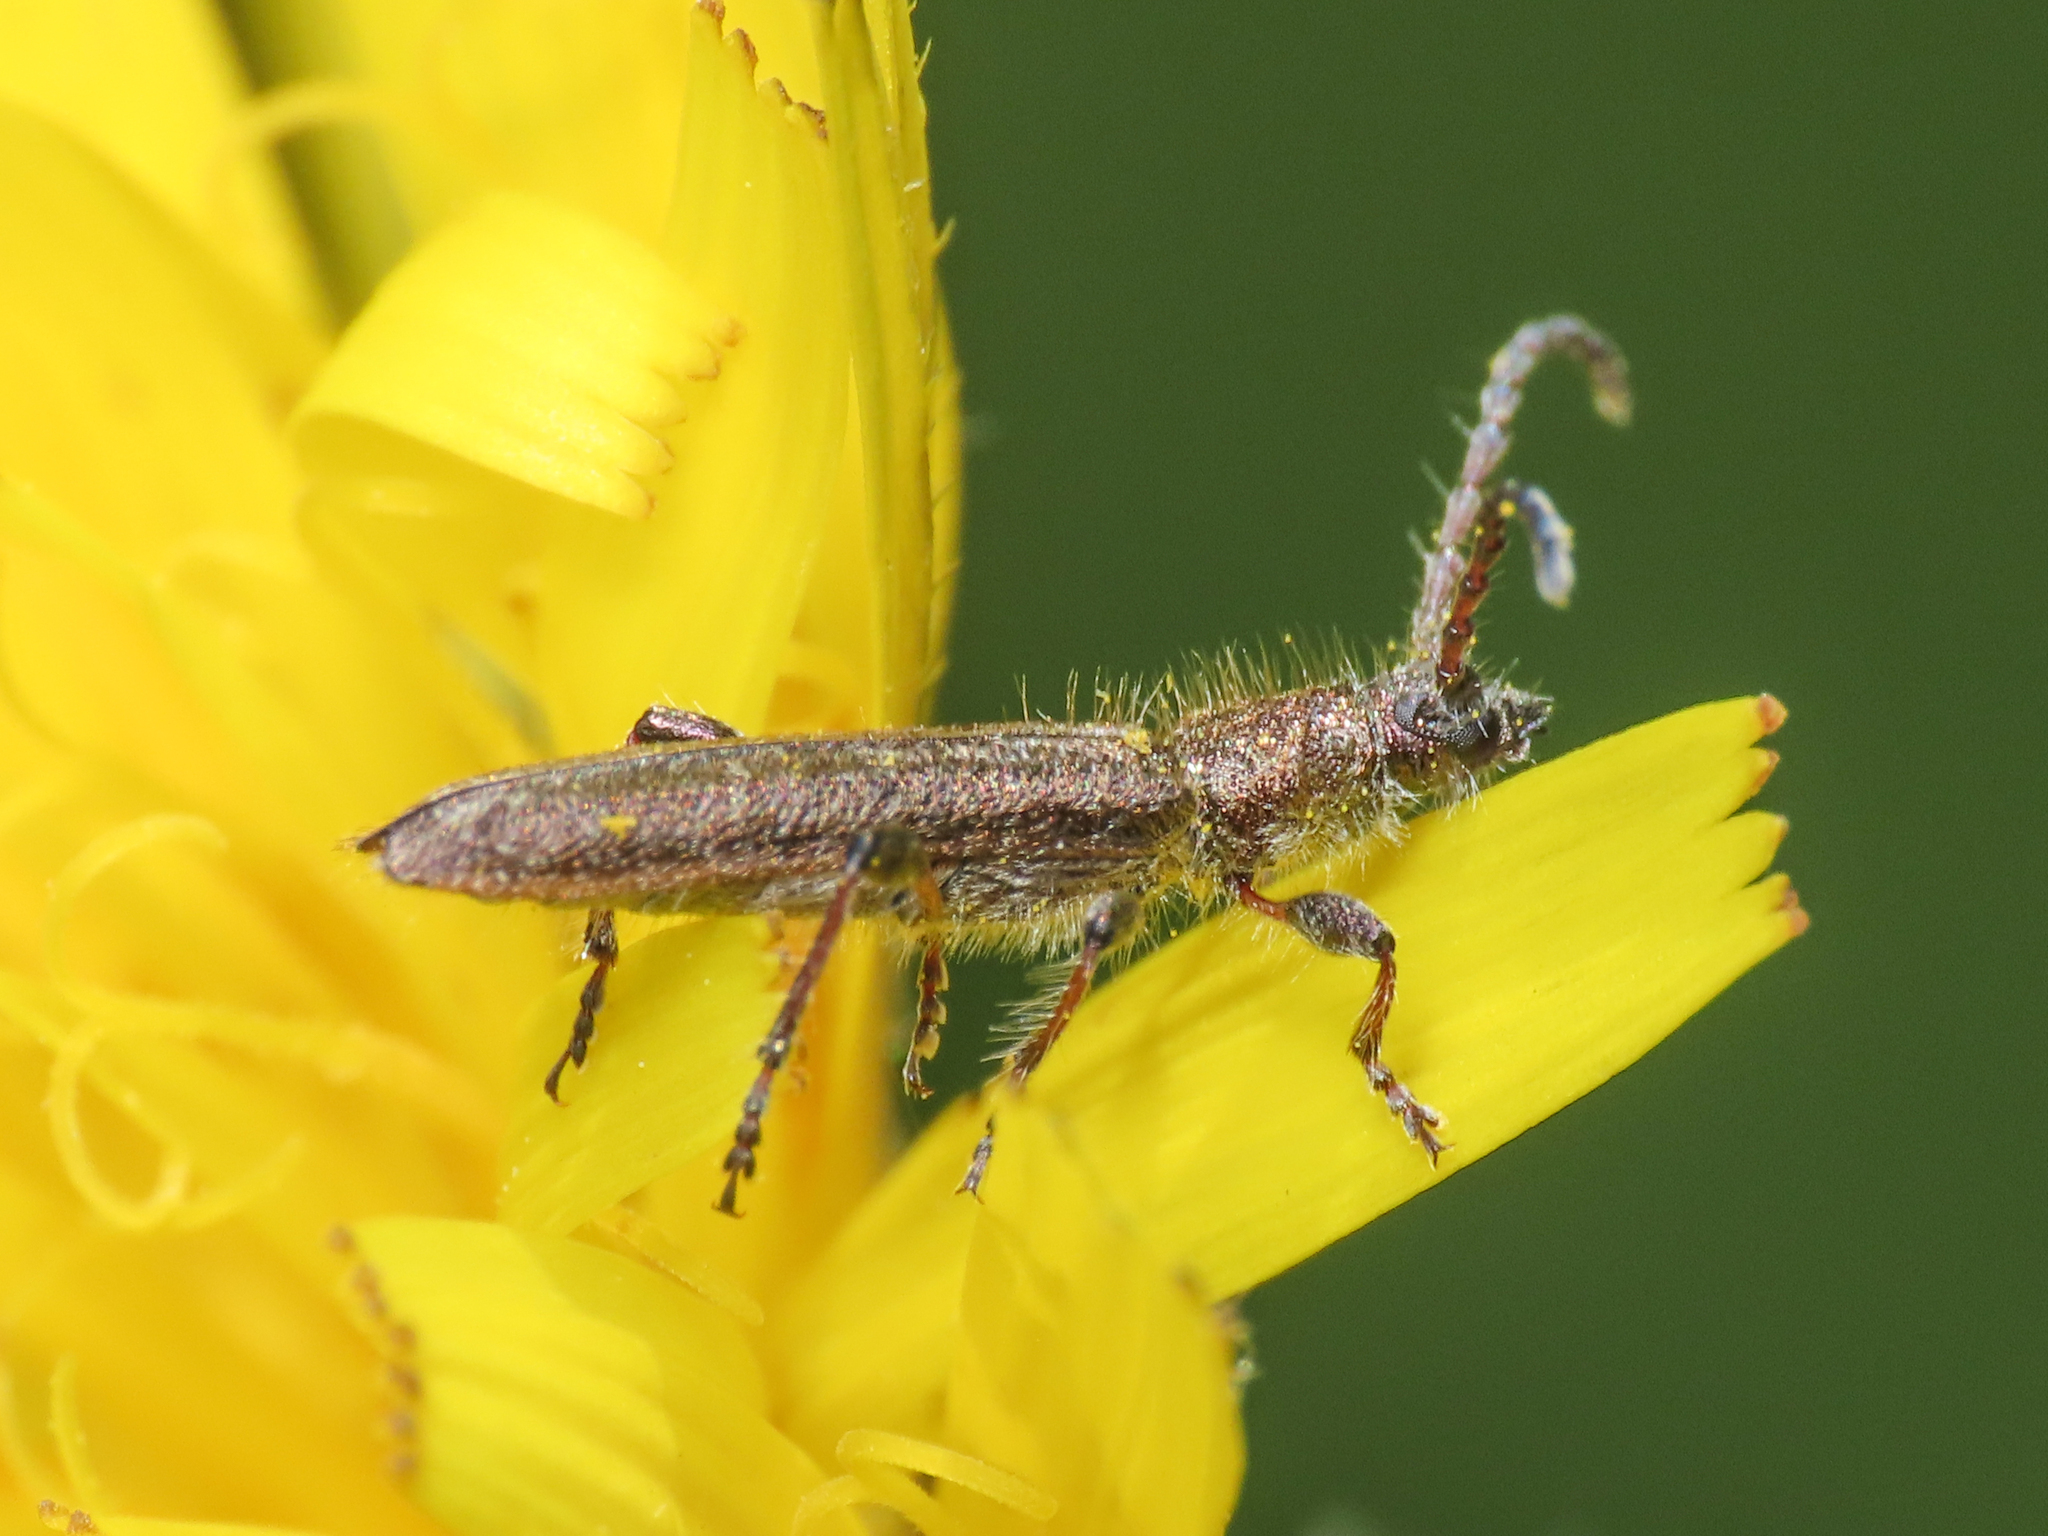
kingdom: Animalia
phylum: Arthropoda
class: Insecta
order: Coleoptera
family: Cerambycidae
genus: Deilus
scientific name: Deilus fugax
